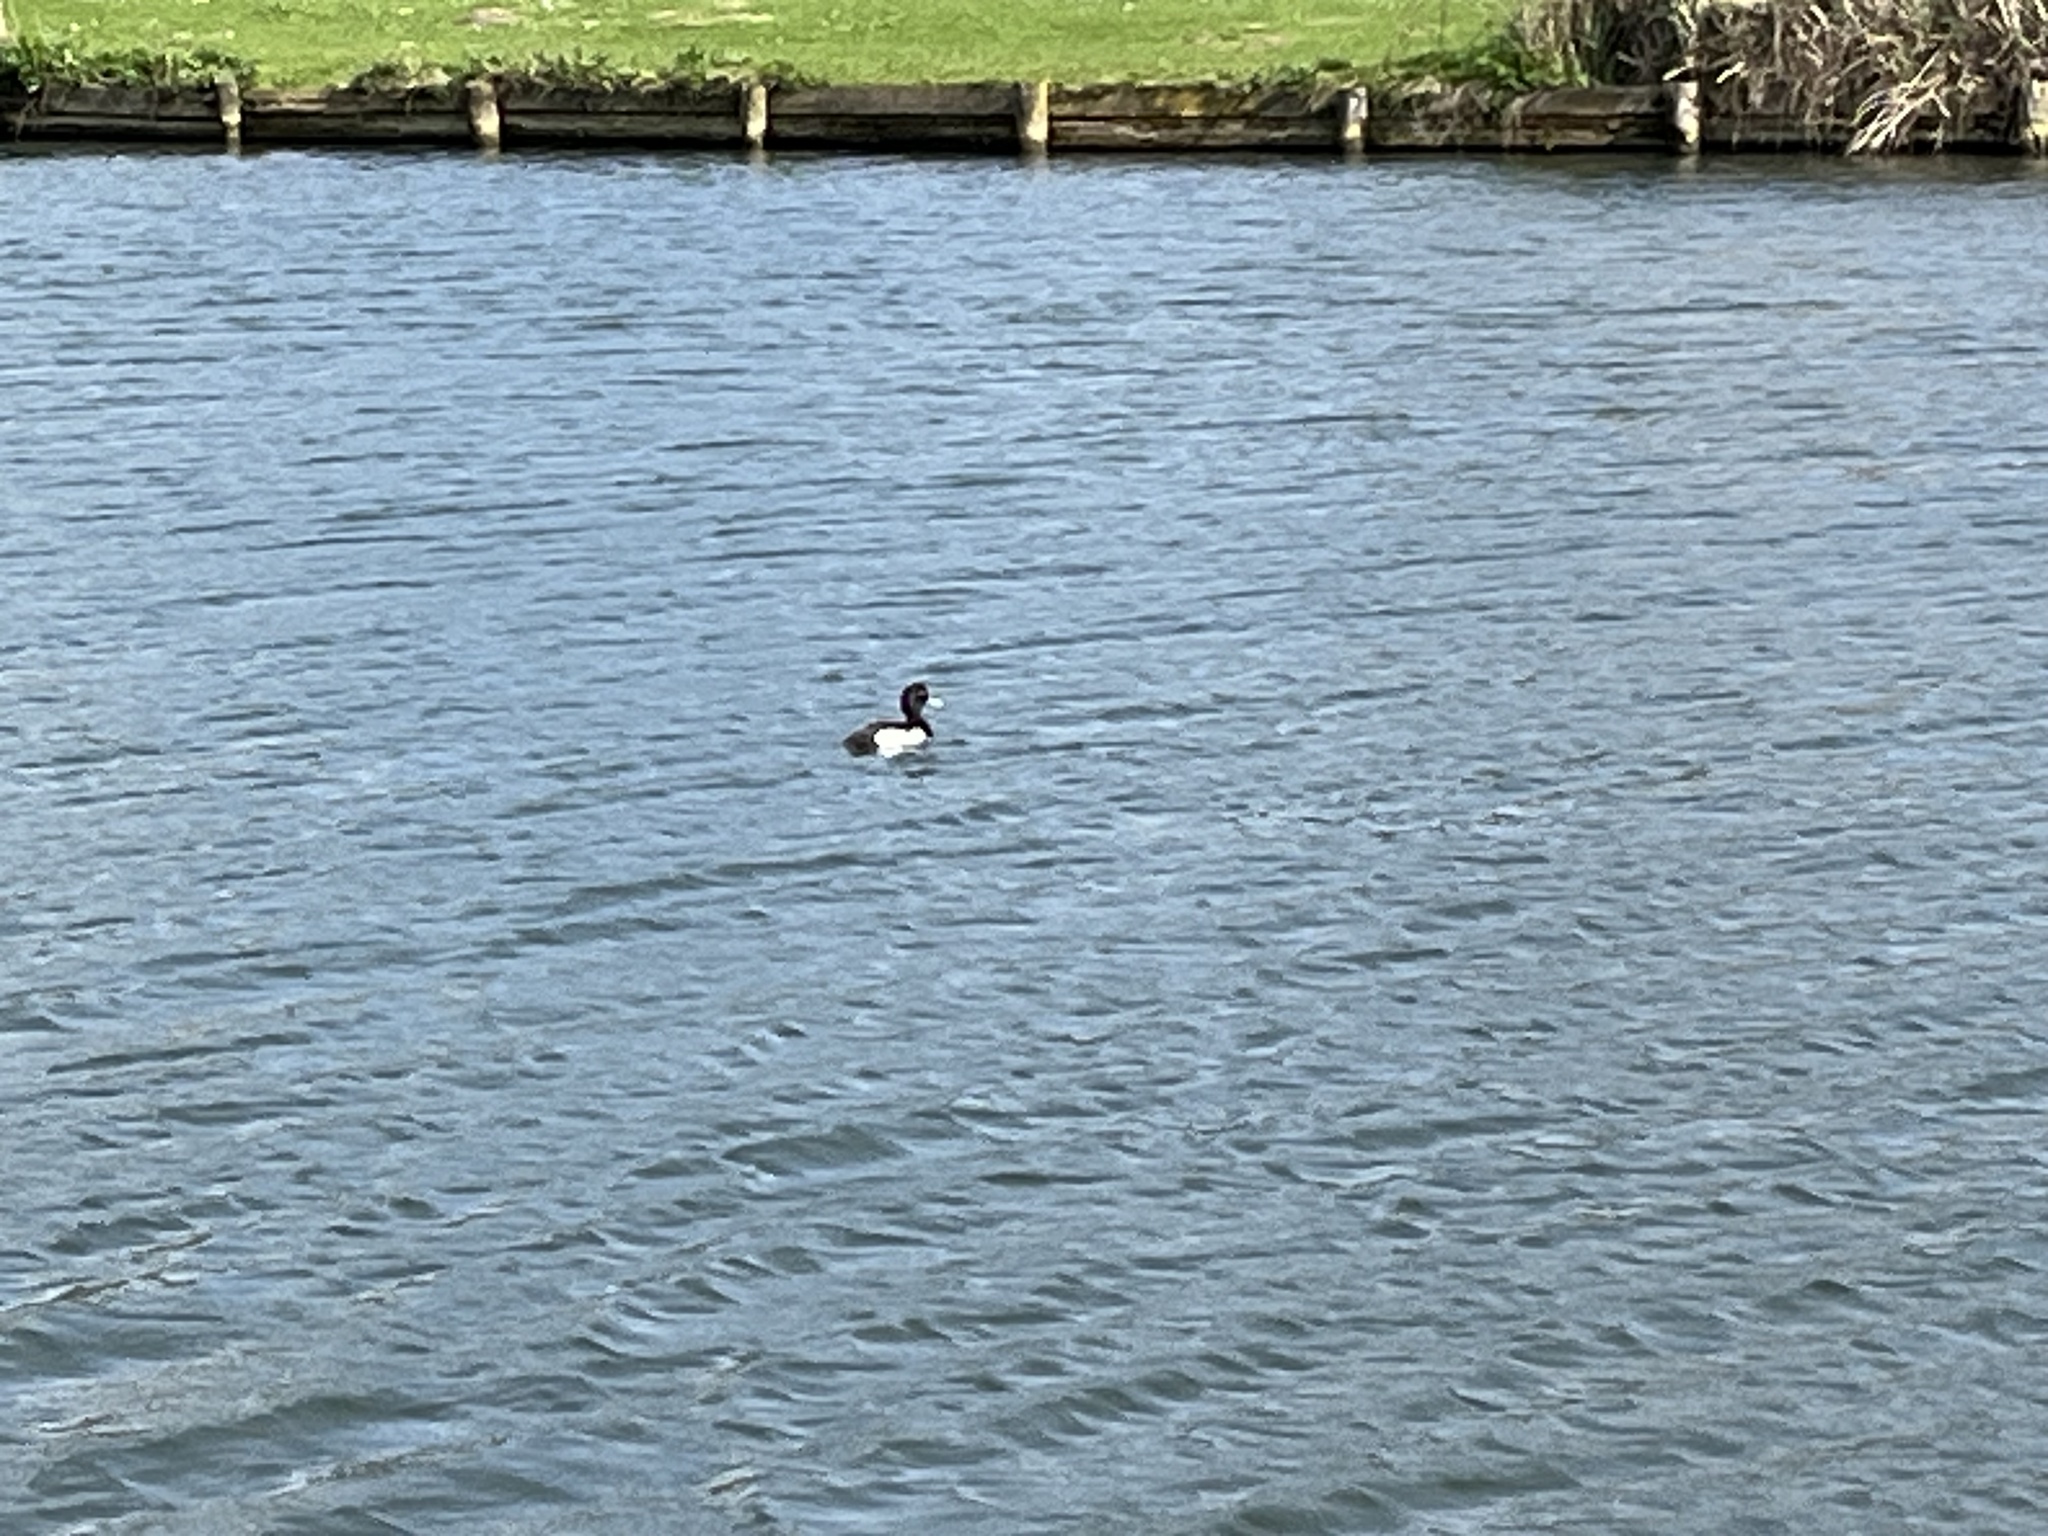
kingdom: Animalia
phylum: Chordata
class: Aves
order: Anseriformes
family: Anatidae
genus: Aythya
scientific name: Aythya fuligula
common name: Tufted duck
